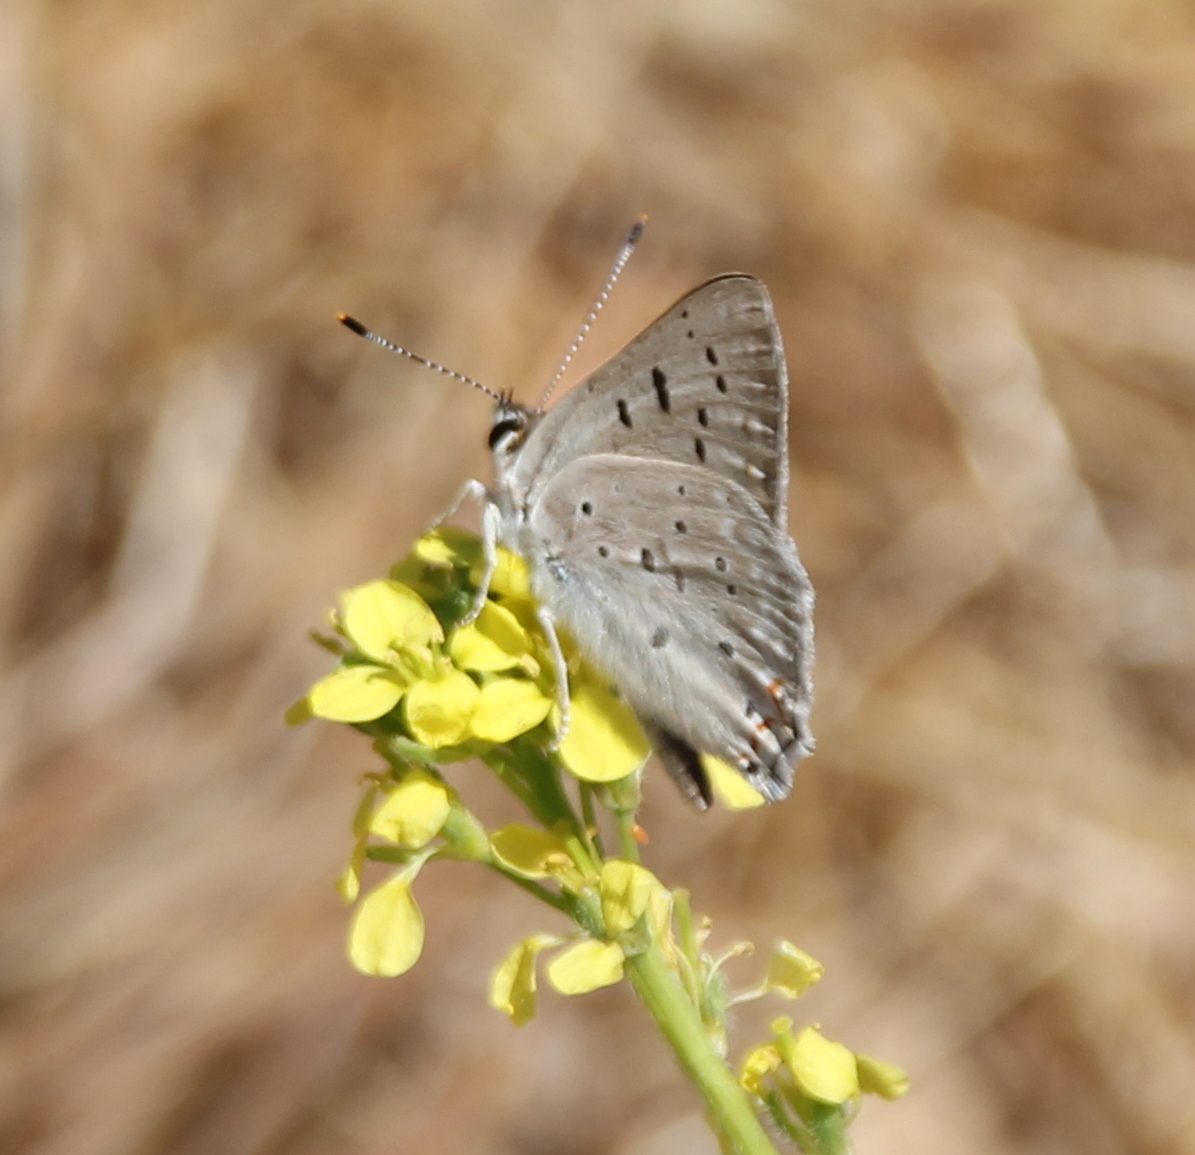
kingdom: Animalia
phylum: Arthropoda
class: Insecta
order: Lepidoptera
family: Lycaenidae
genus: Tharsalea
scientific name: Tharsalea xanthoides
